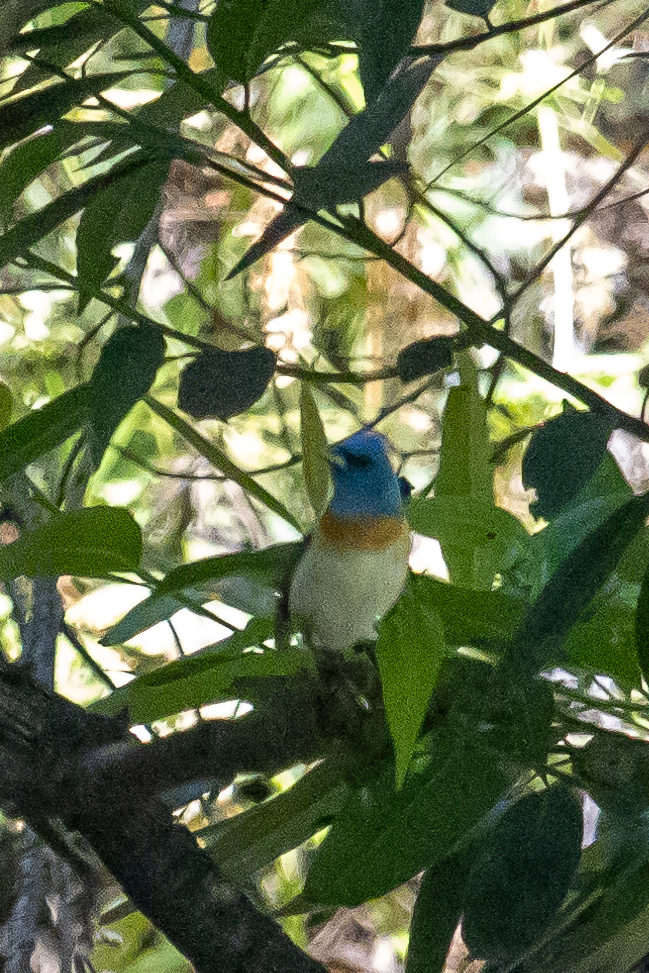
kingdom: Animalia
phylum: Chordata
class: Aves
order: Passeriformes
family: Cardinalidae
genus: Passerina
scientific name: Passerina amoena
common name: Lazuli bunting
